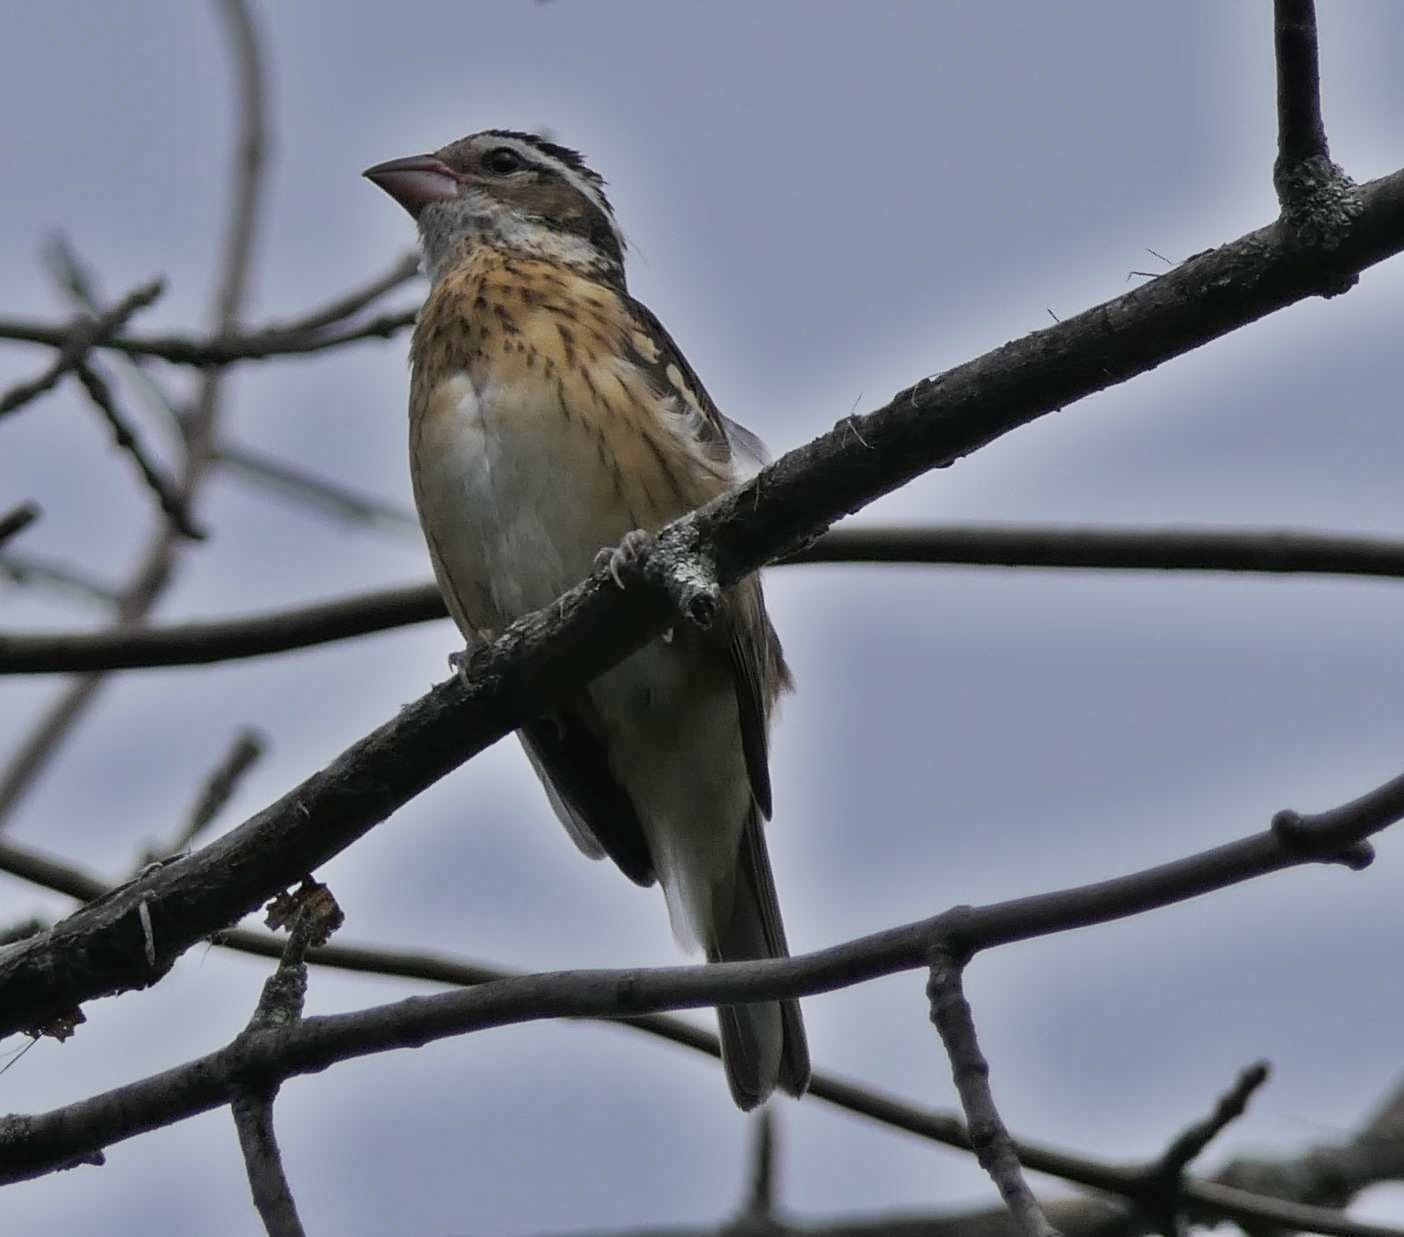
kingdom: Animalia
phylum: Chordata
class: Aves
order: Passeriformes
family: Cardinalidae
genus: Pheucticus
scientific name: Pheucticus ludovicianus
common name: Rose-breasted grosbeak
